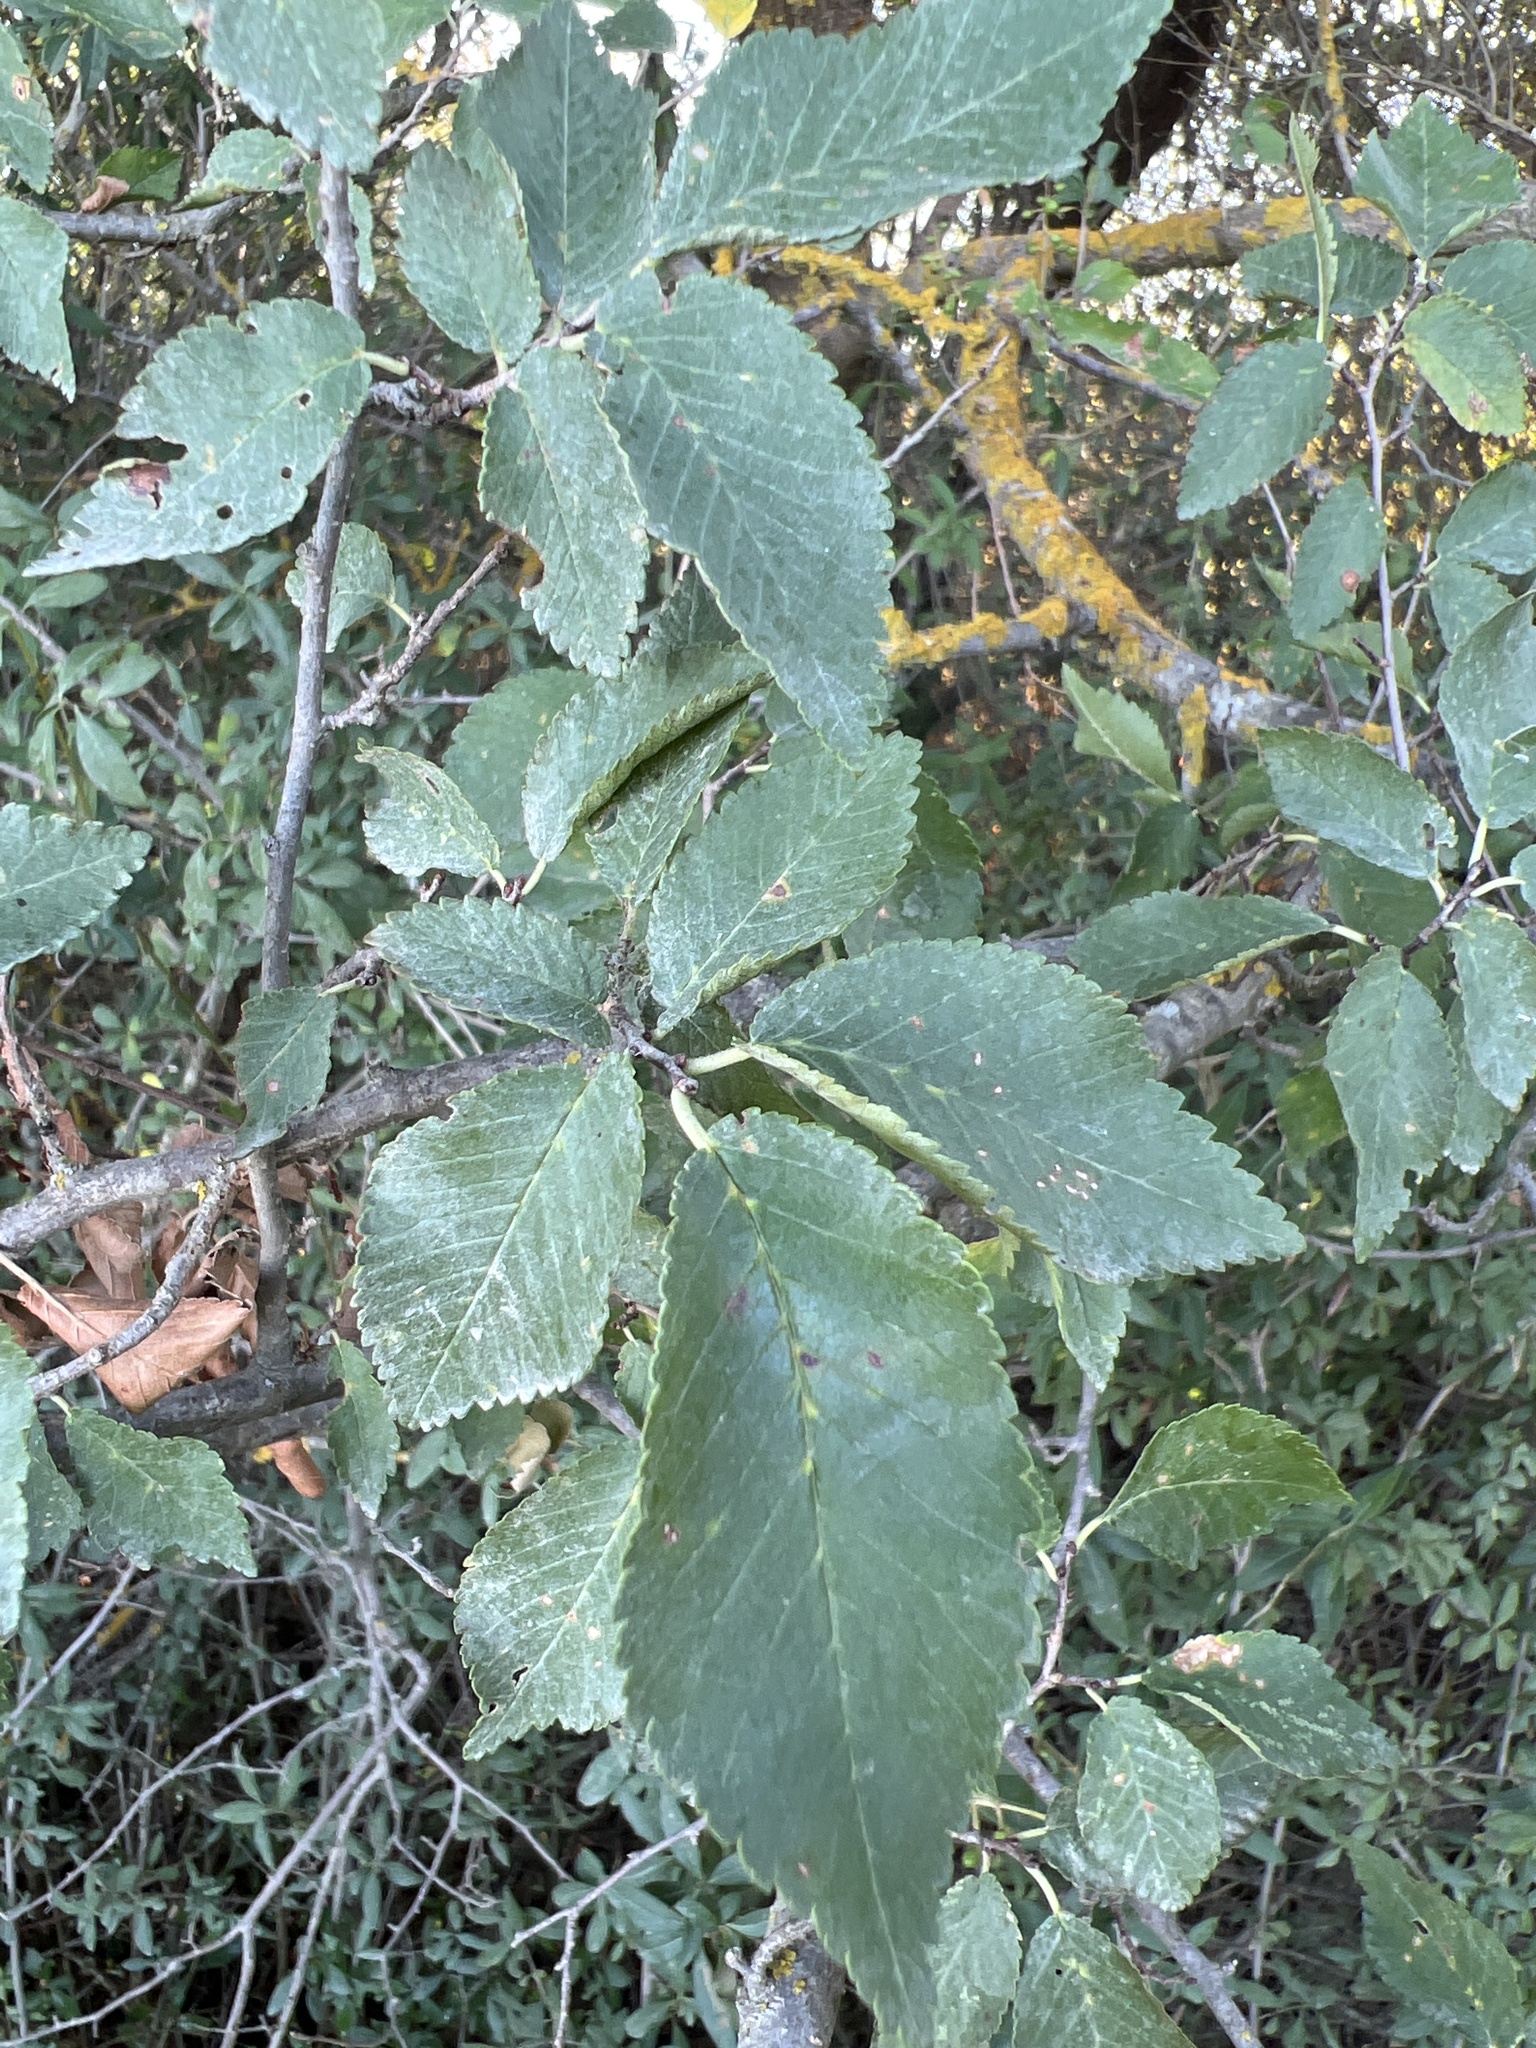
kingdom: Plantae
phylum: Tracheophyta
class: Magnoliopsida
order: Rosales
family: Ulmaceae
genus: Ulmus
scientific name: Ulmus minor
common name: Small-leaved elm
